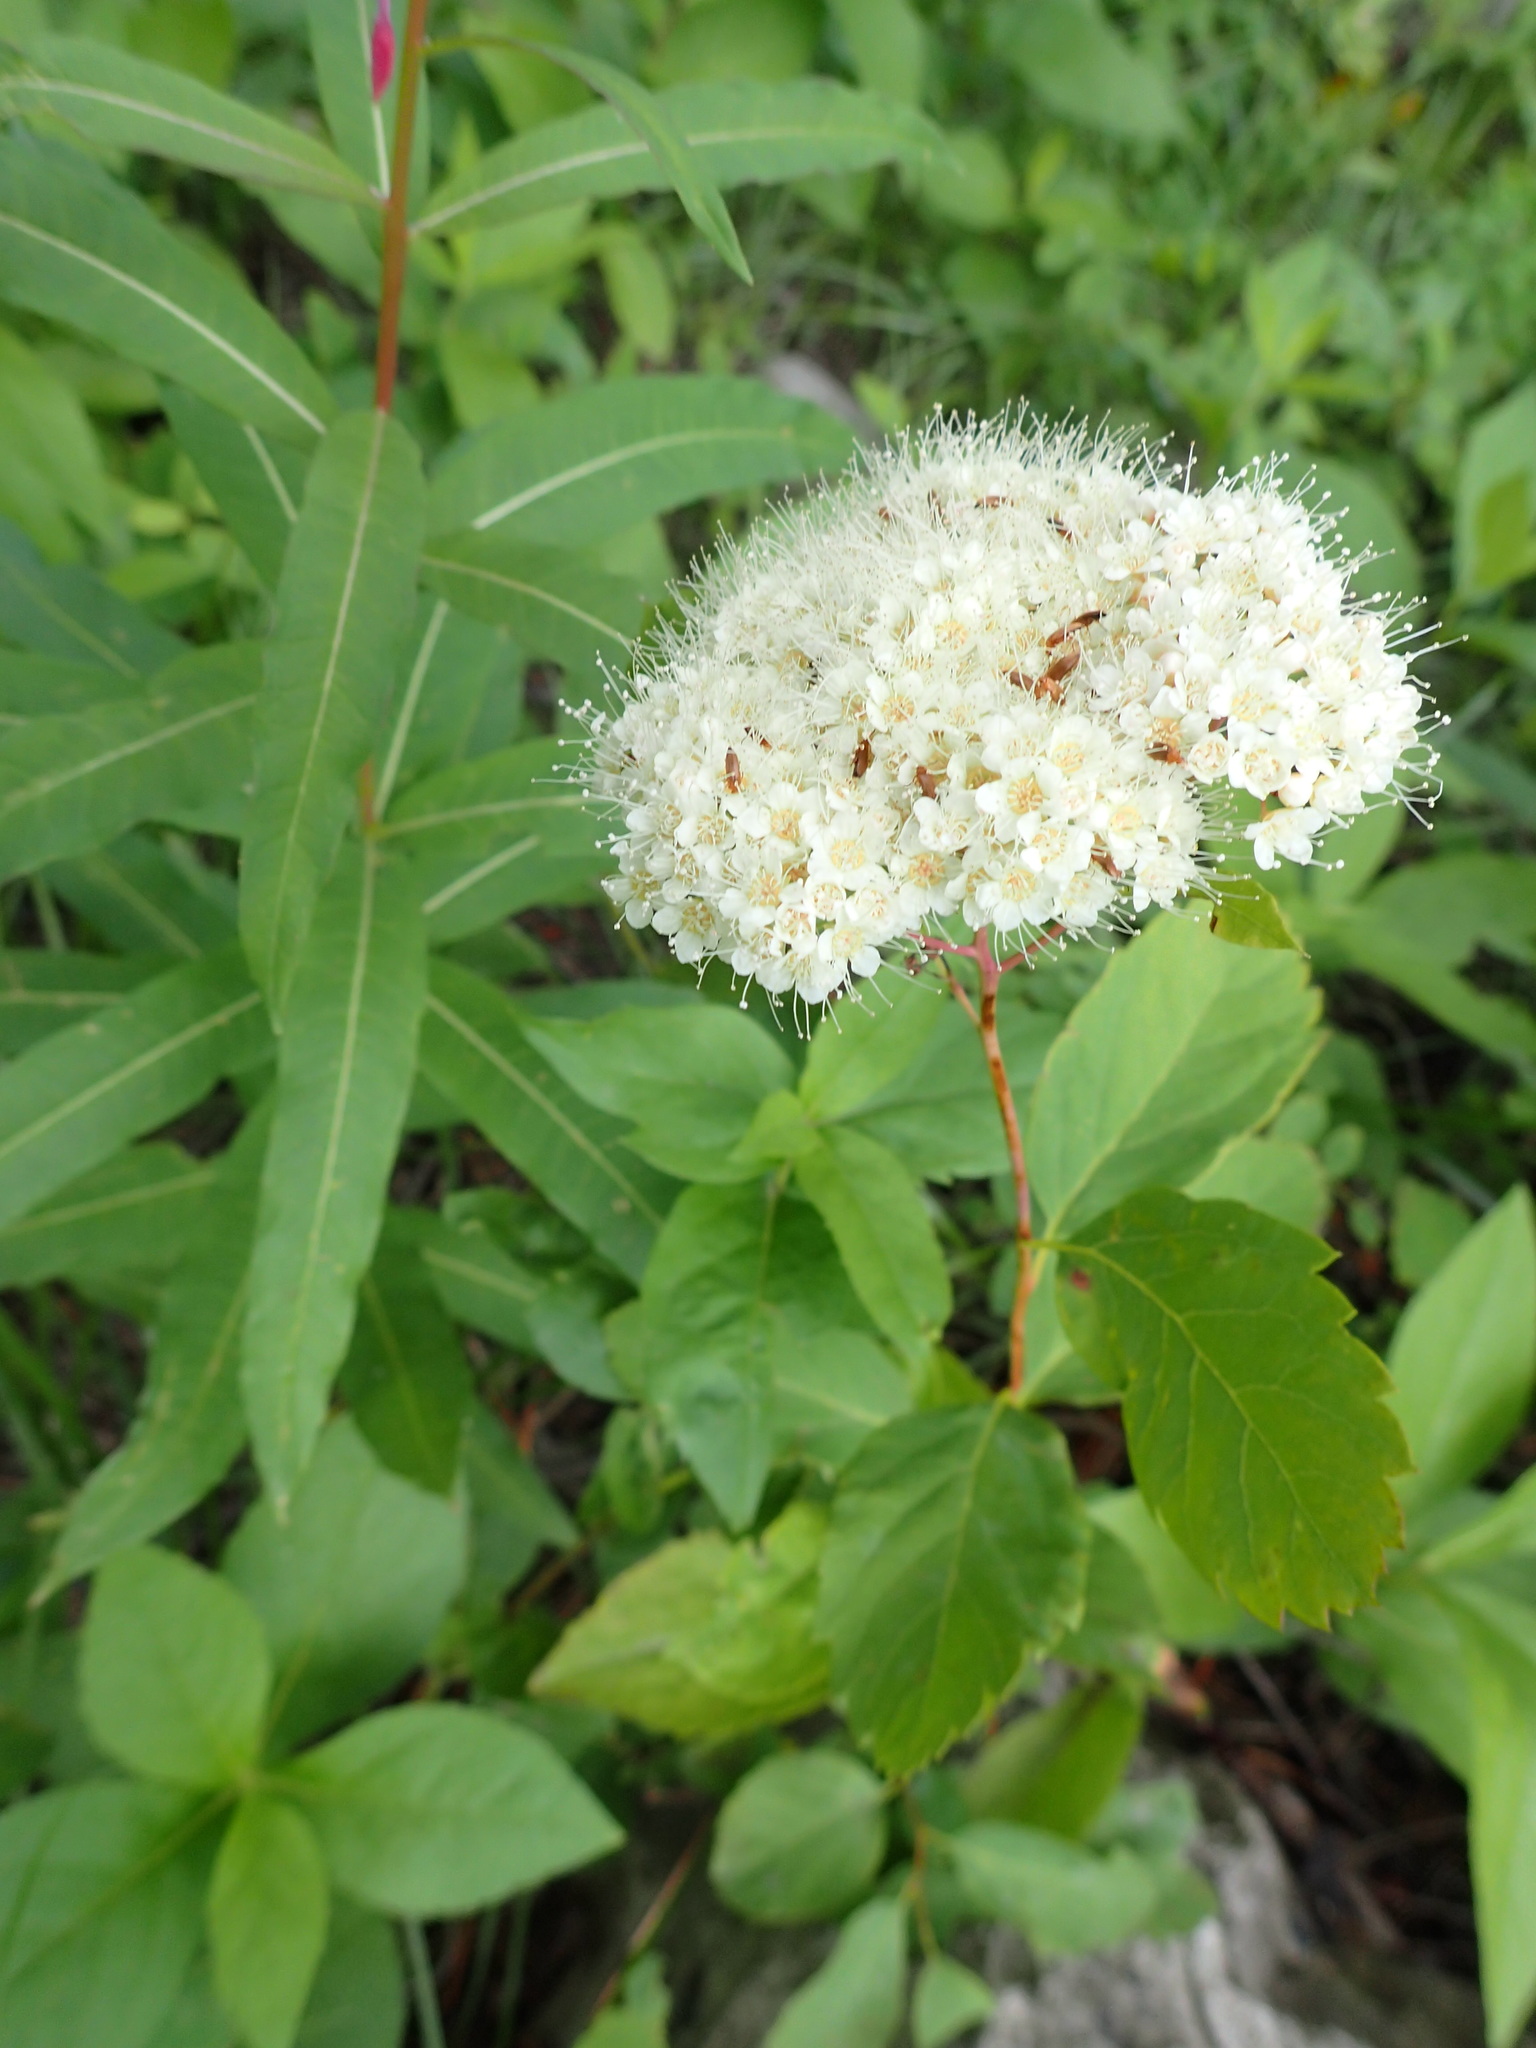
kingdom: Plantae
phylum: Tracheophyta
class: Magnoliopsida
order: Rosales
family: Rosaceae
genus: Spiraea
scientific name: Spiraea lucida
